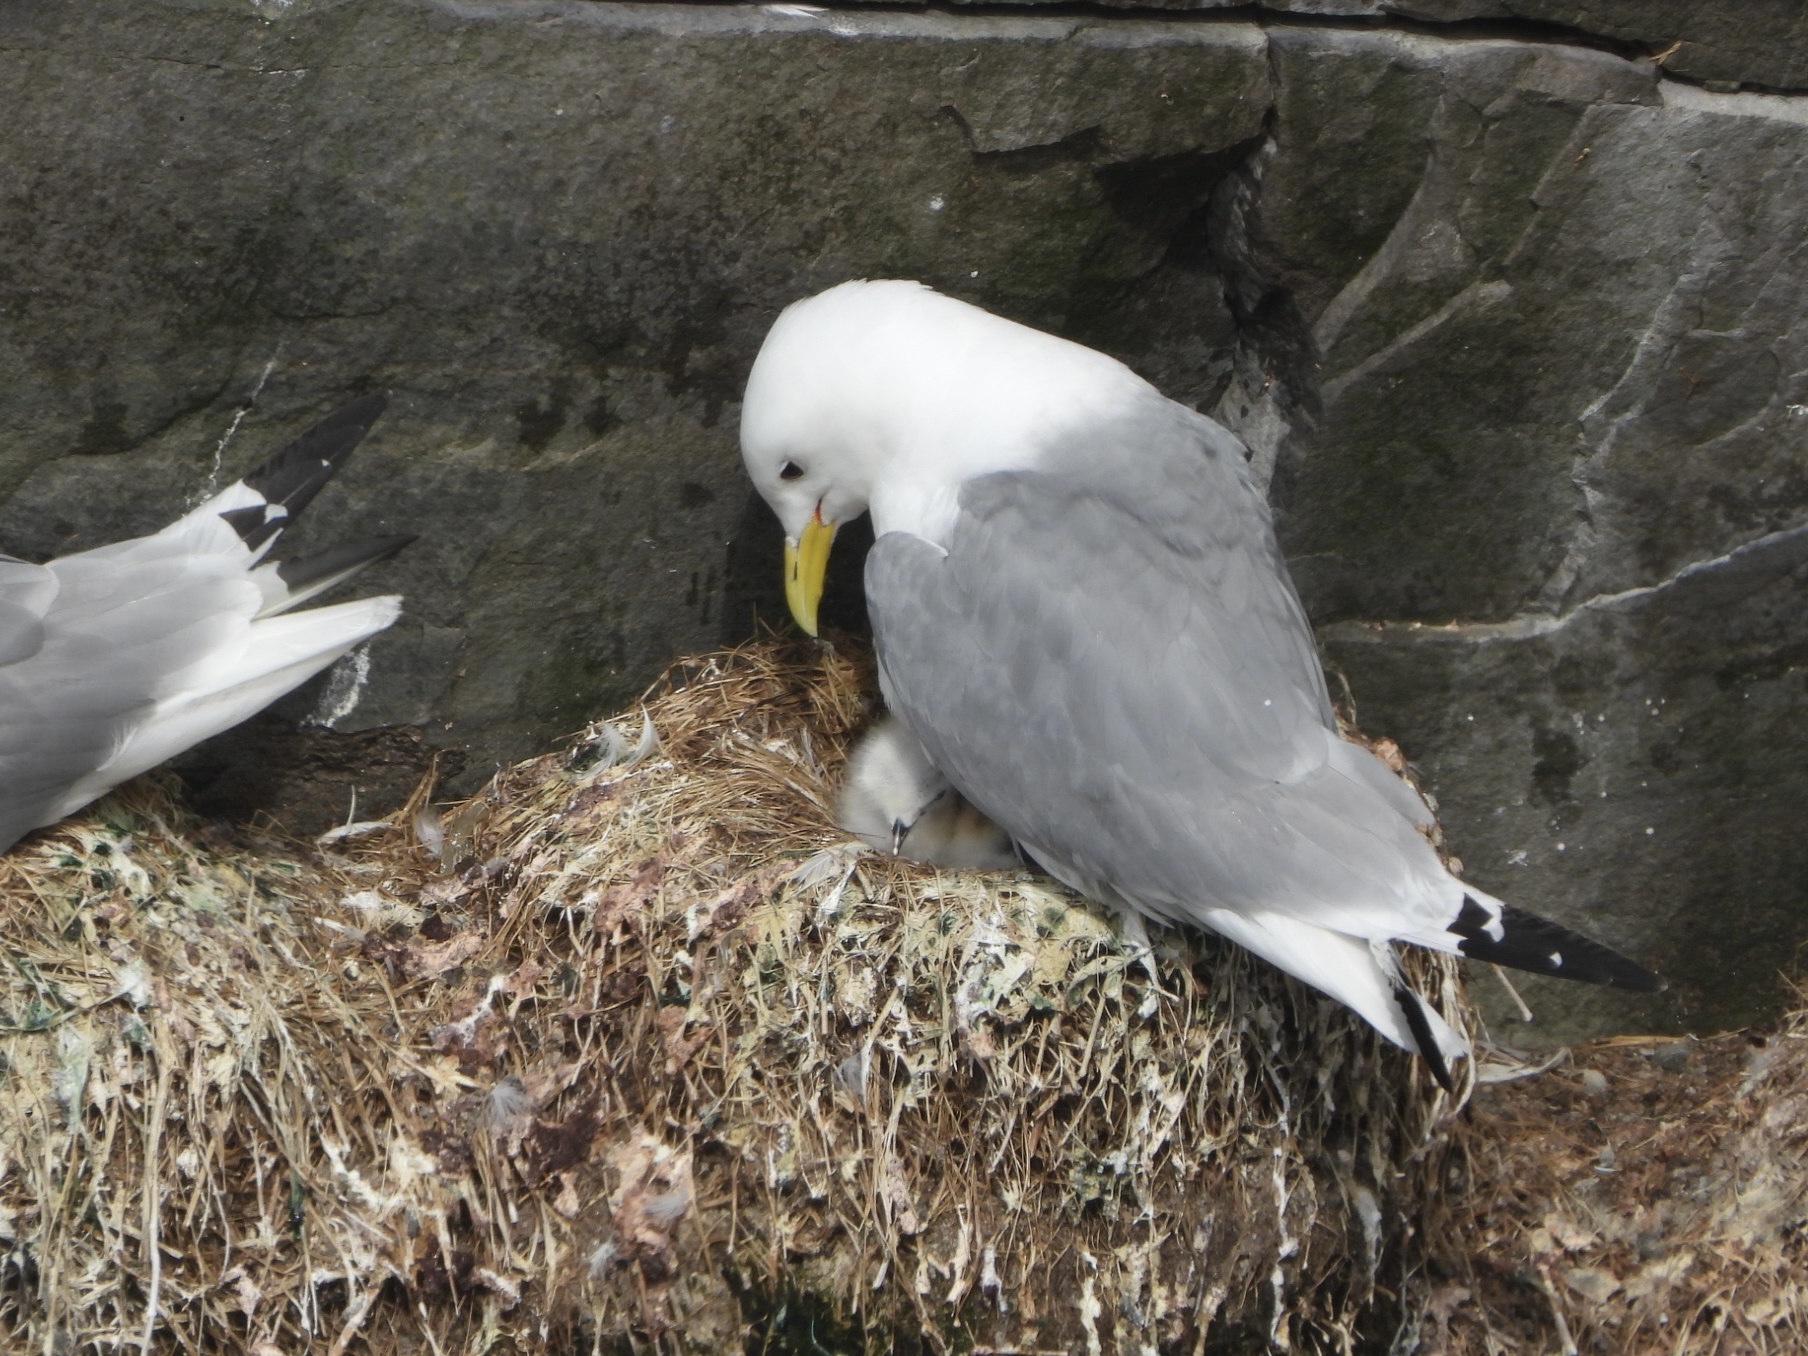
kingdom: Animalia
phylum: Chordata
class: Aves
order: Charadriiformes
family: Laridae
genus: Rissa
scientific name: Rissa tridactyla
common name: Black-legged kittiwake
